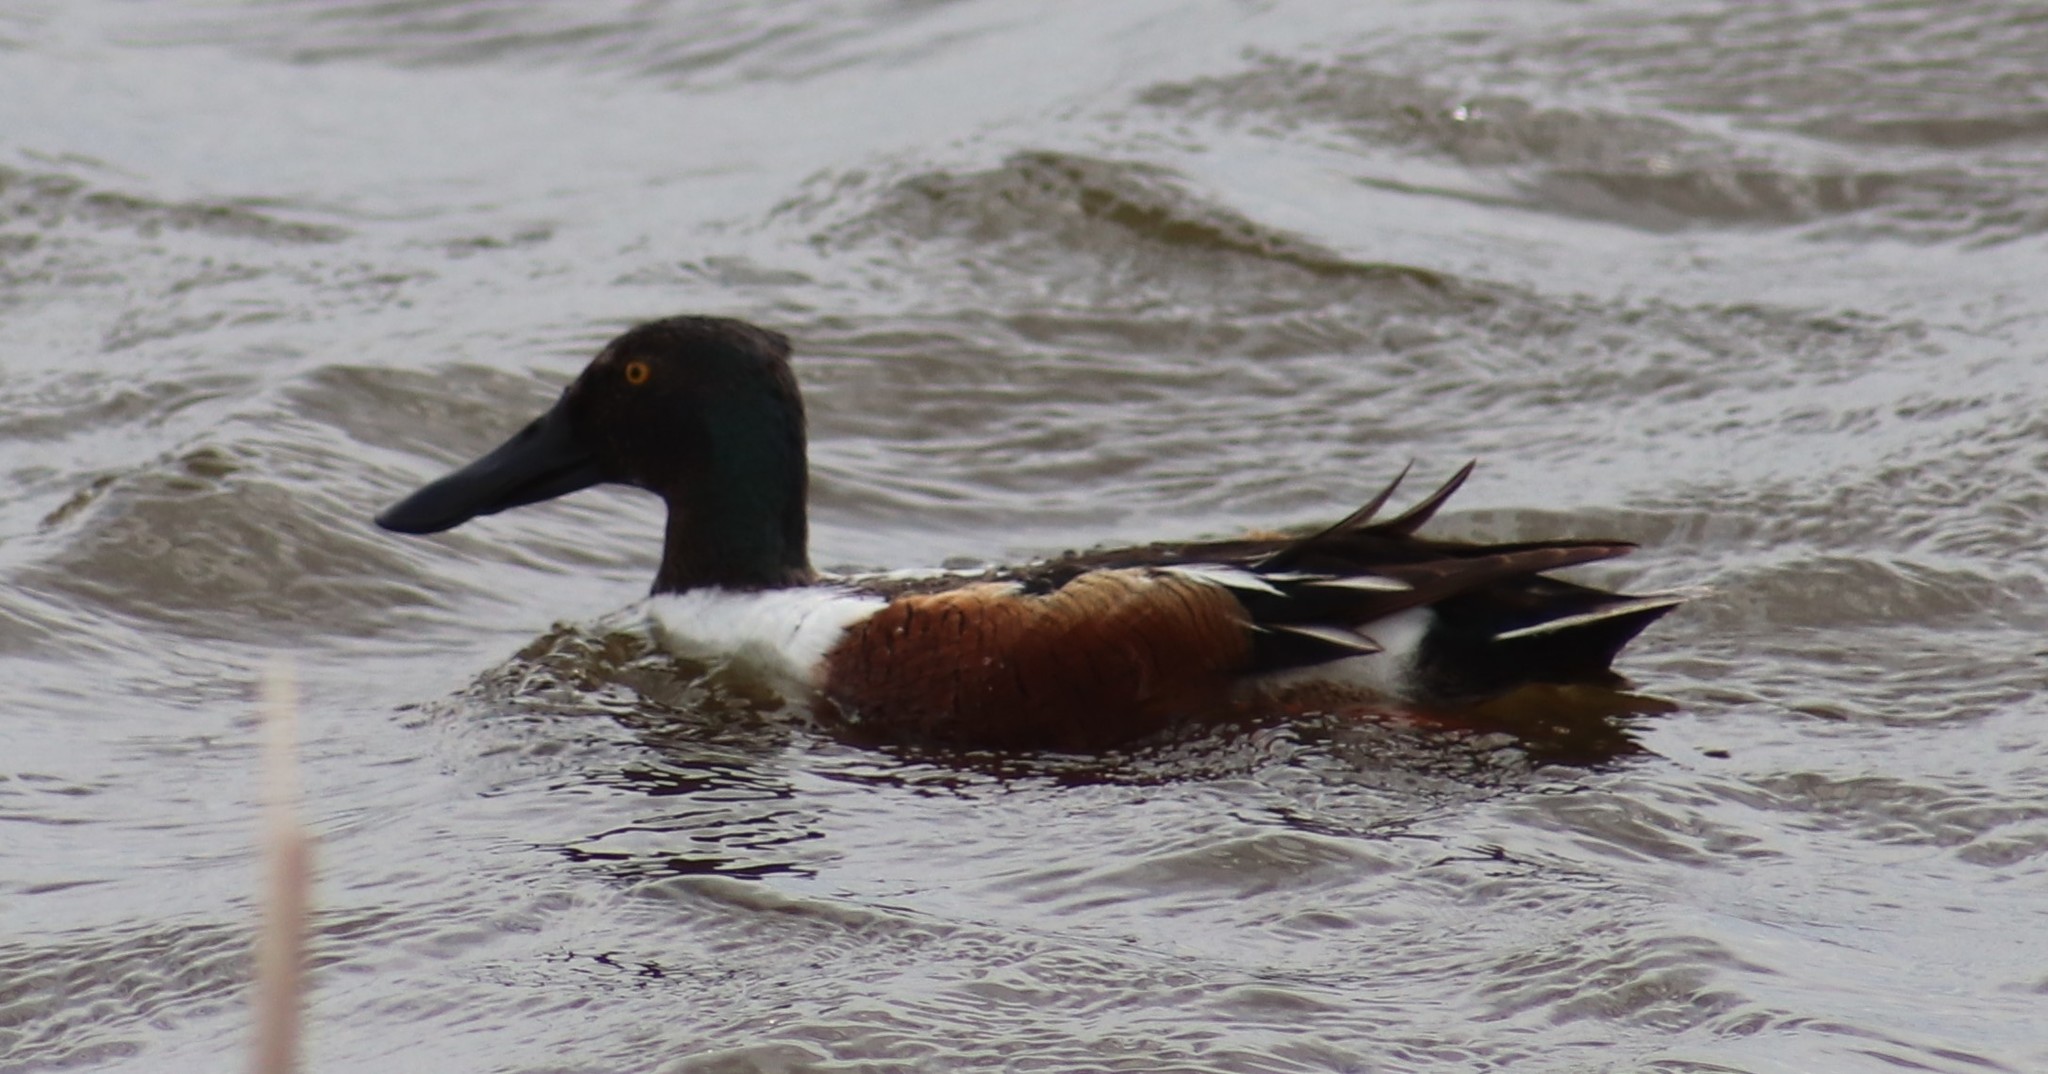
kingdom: Animalia
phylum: Chordata
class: Aves
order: Anseriformes
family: Anatidae
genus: Spatula
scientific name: Spatula clypeata
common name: Northern shoveler
